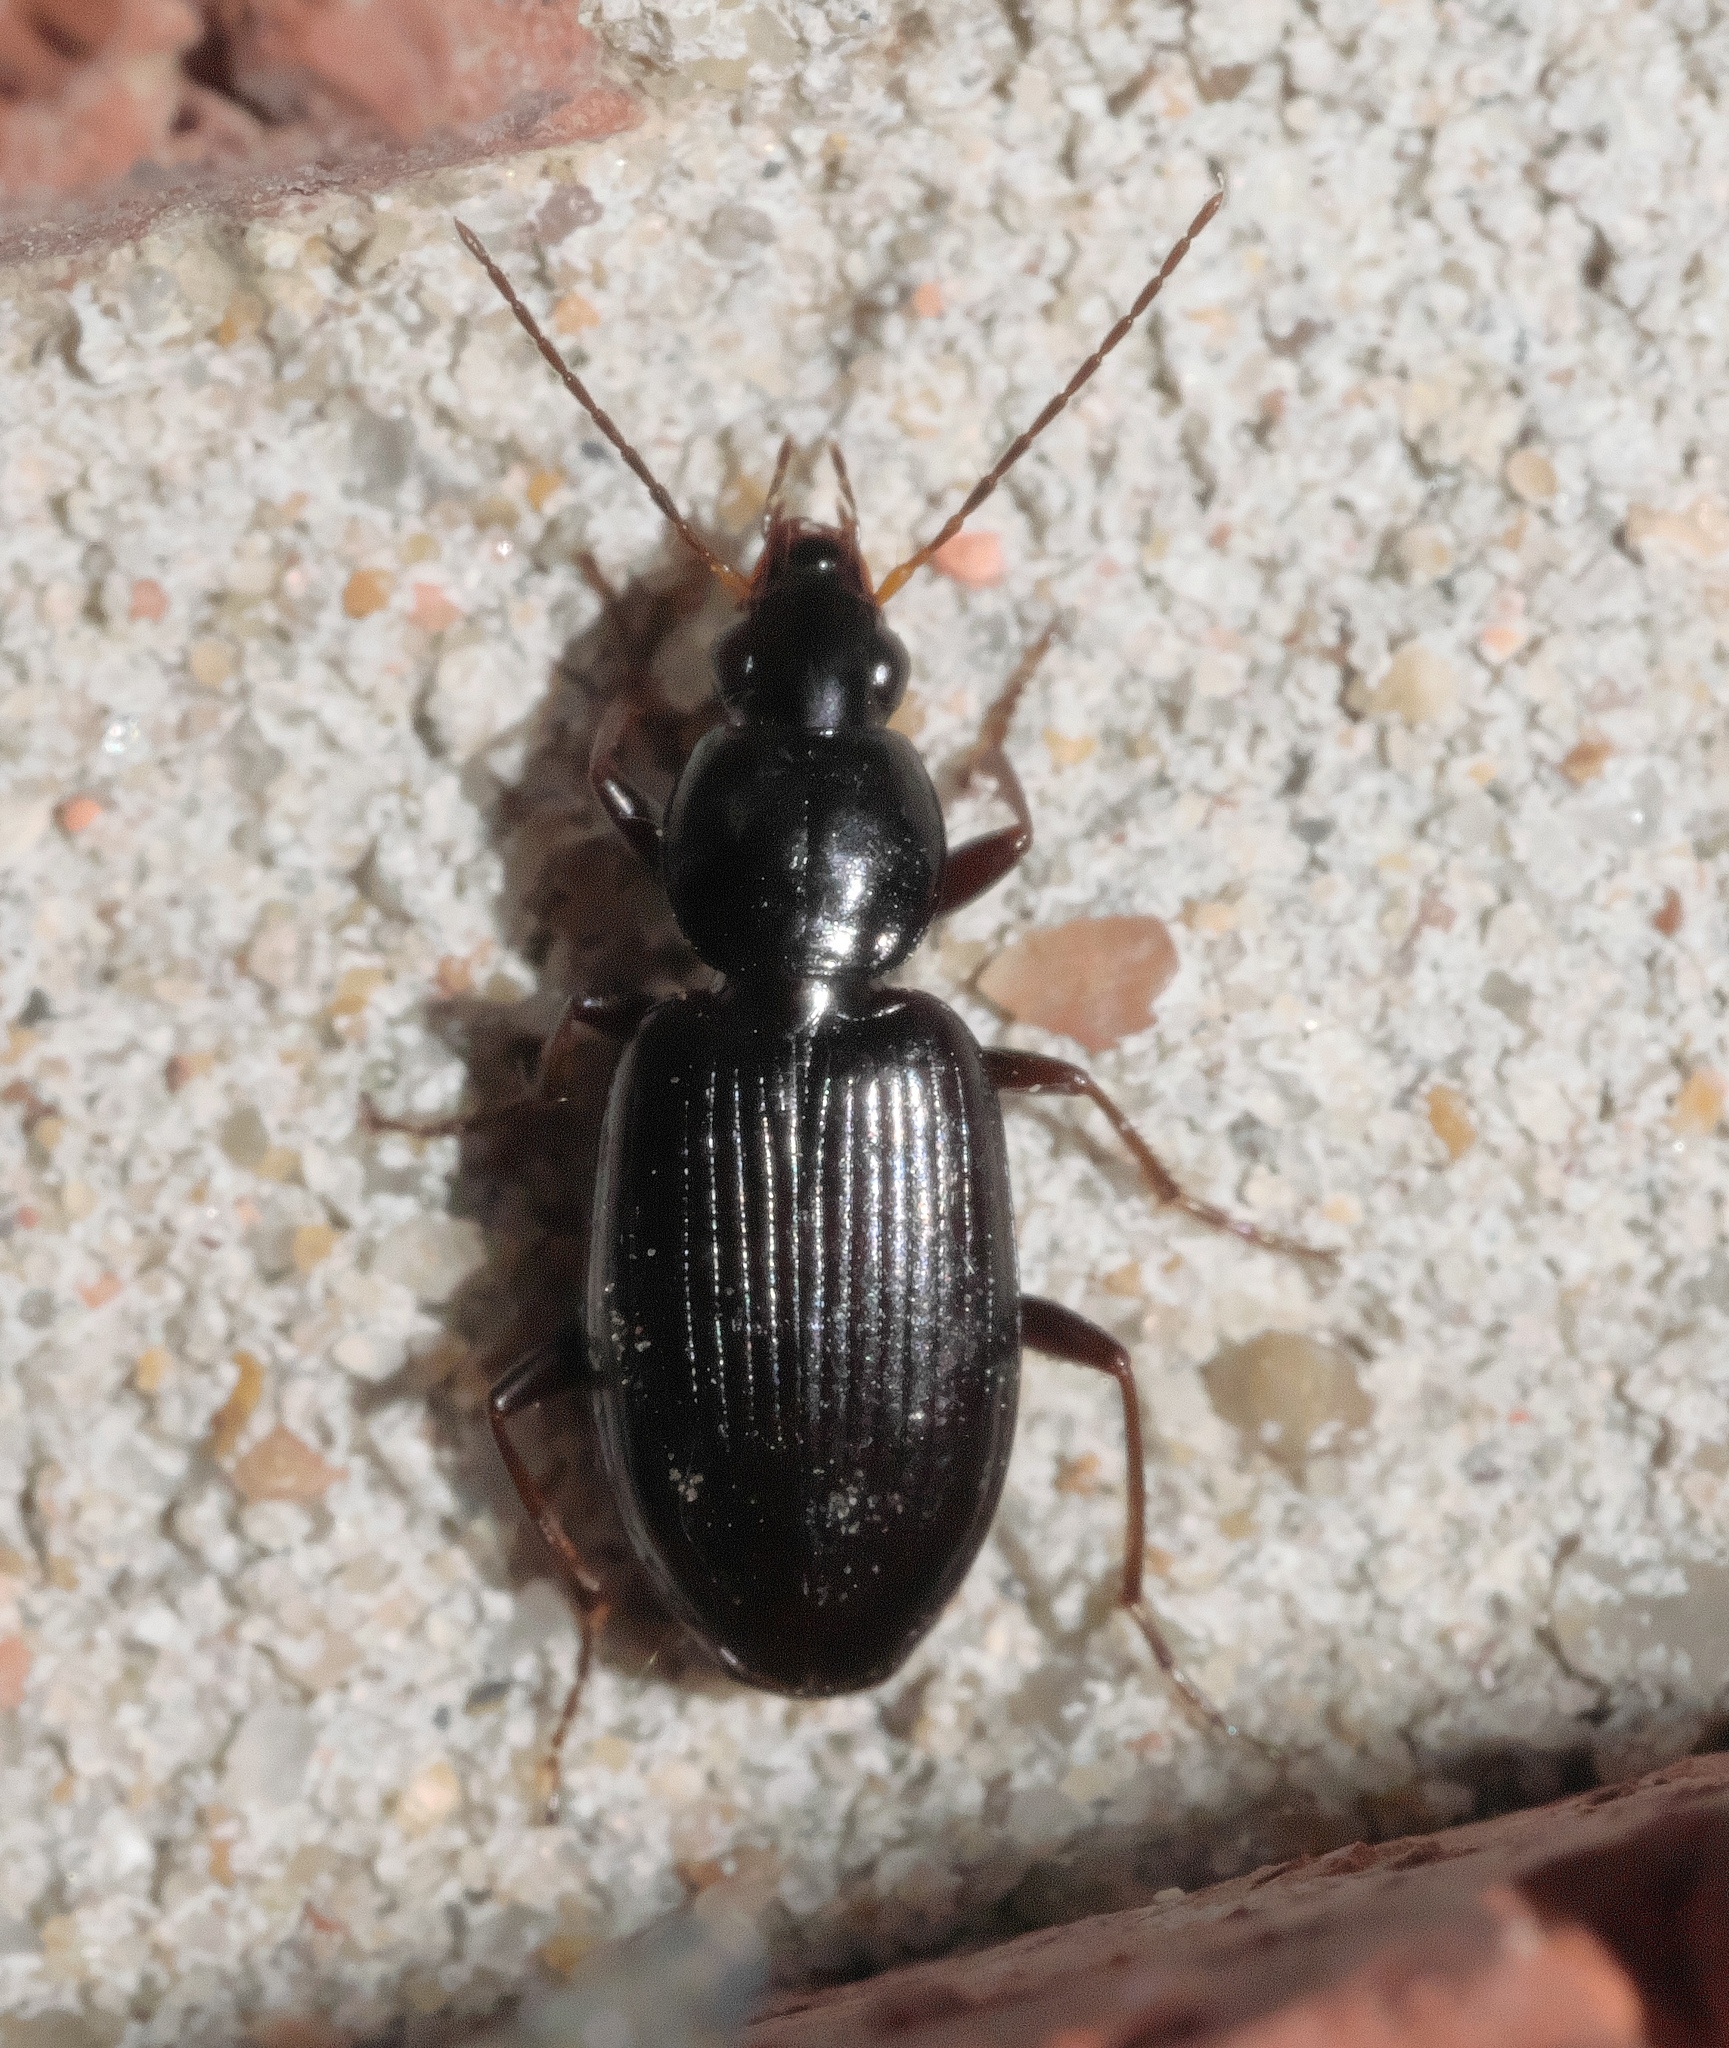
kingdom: Animalia
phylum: Arthropoda
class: Insecta
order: Coleoptera
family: Carabidae
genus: Agonum
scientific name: Agonum punctiforme
